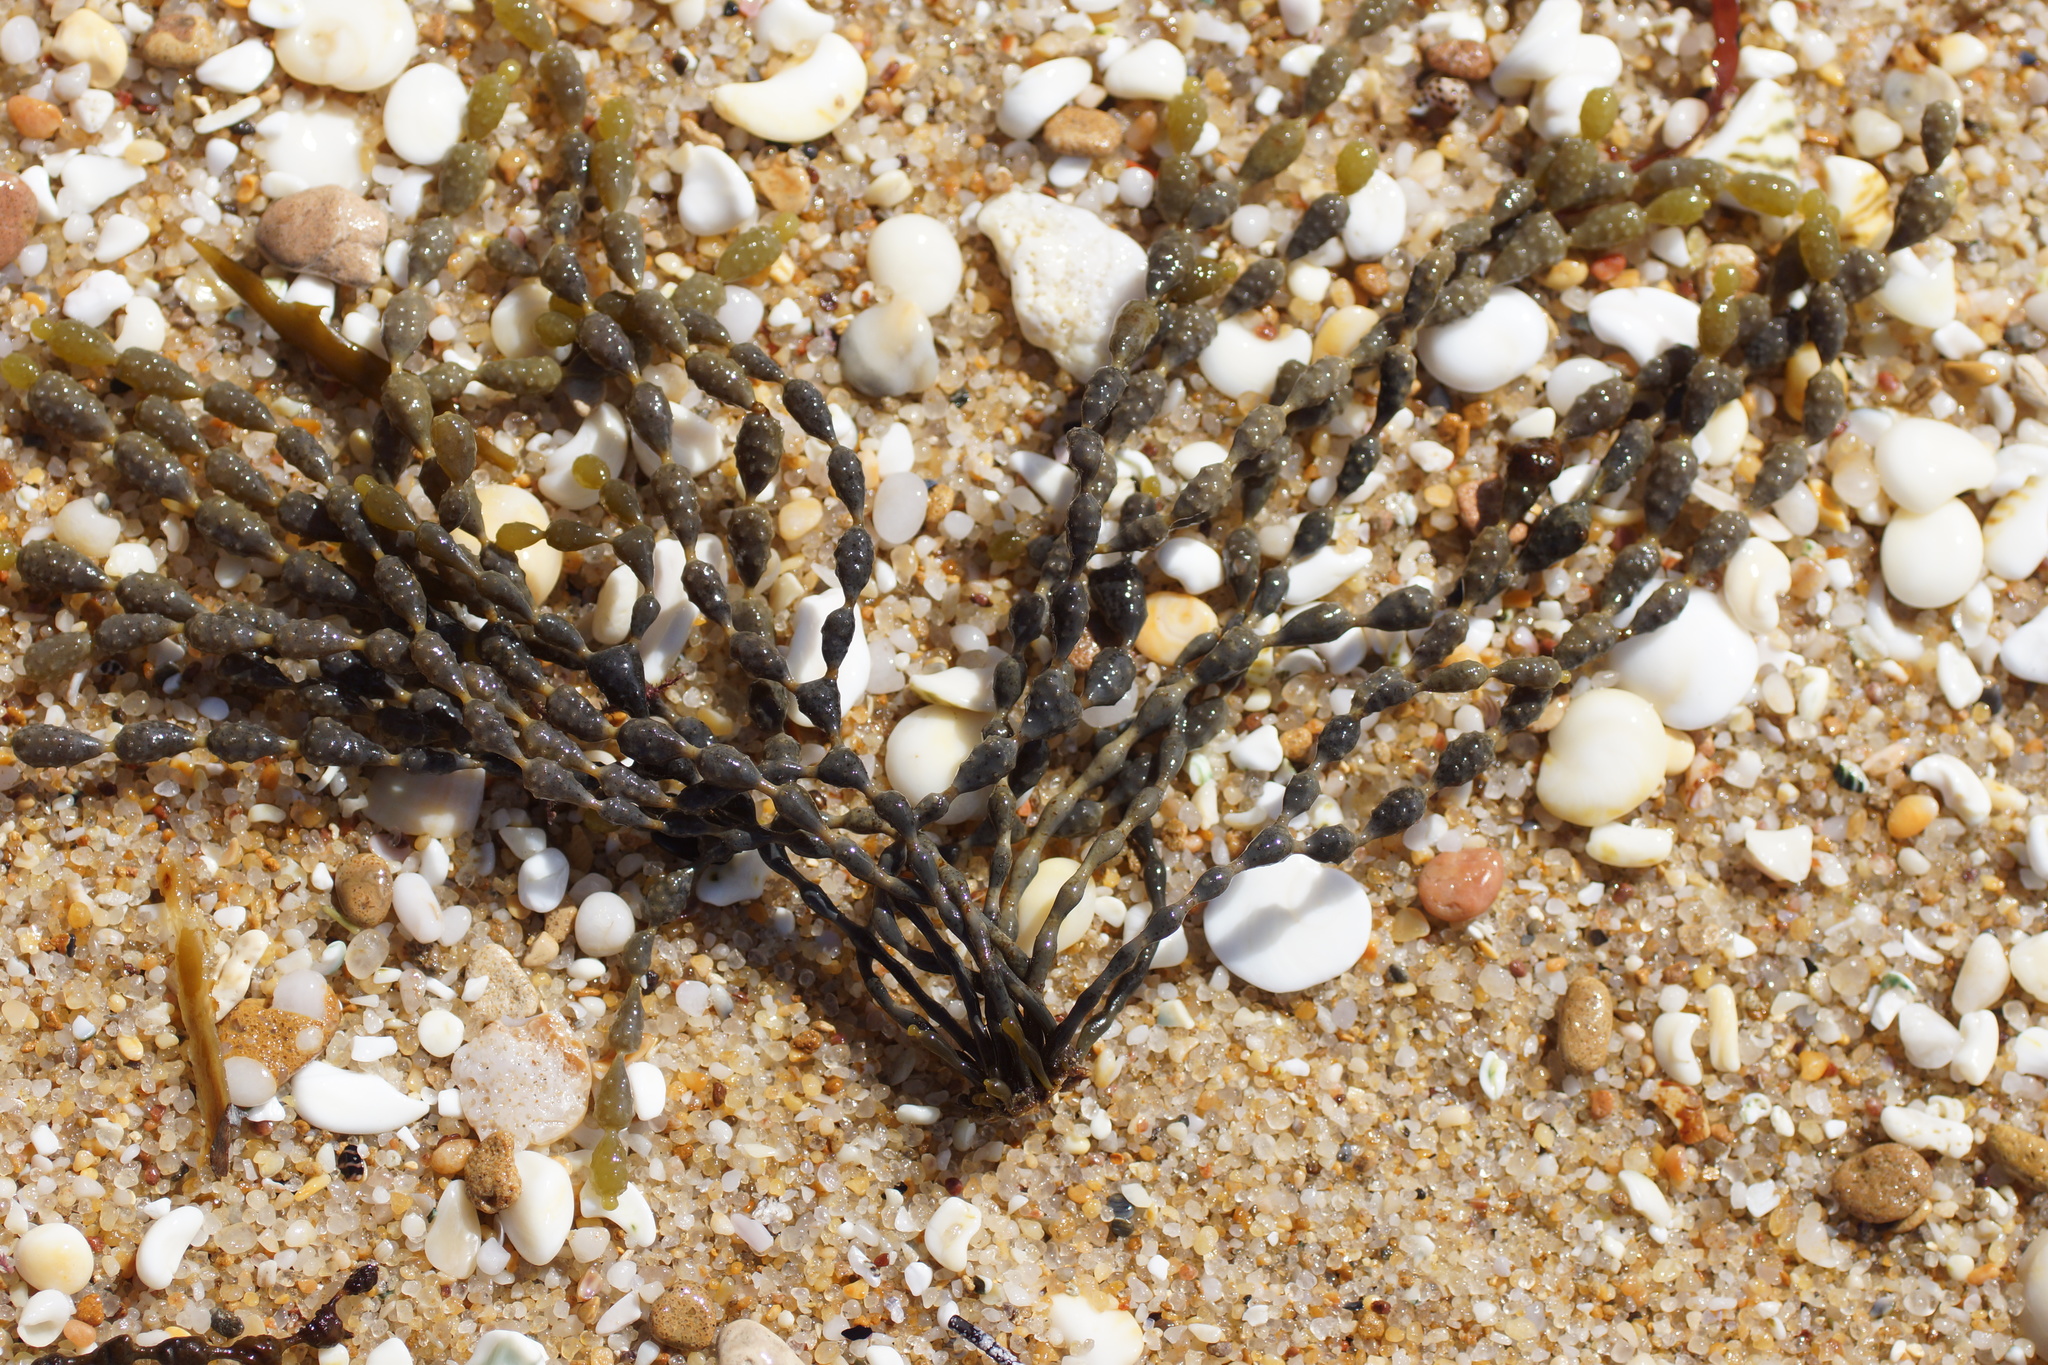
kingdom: Chromista
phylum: Ochrophyta
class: Phaeophyceae
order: Fucales
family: Hormosiraceae
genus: Hormosira
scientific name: Hormosira banksii
